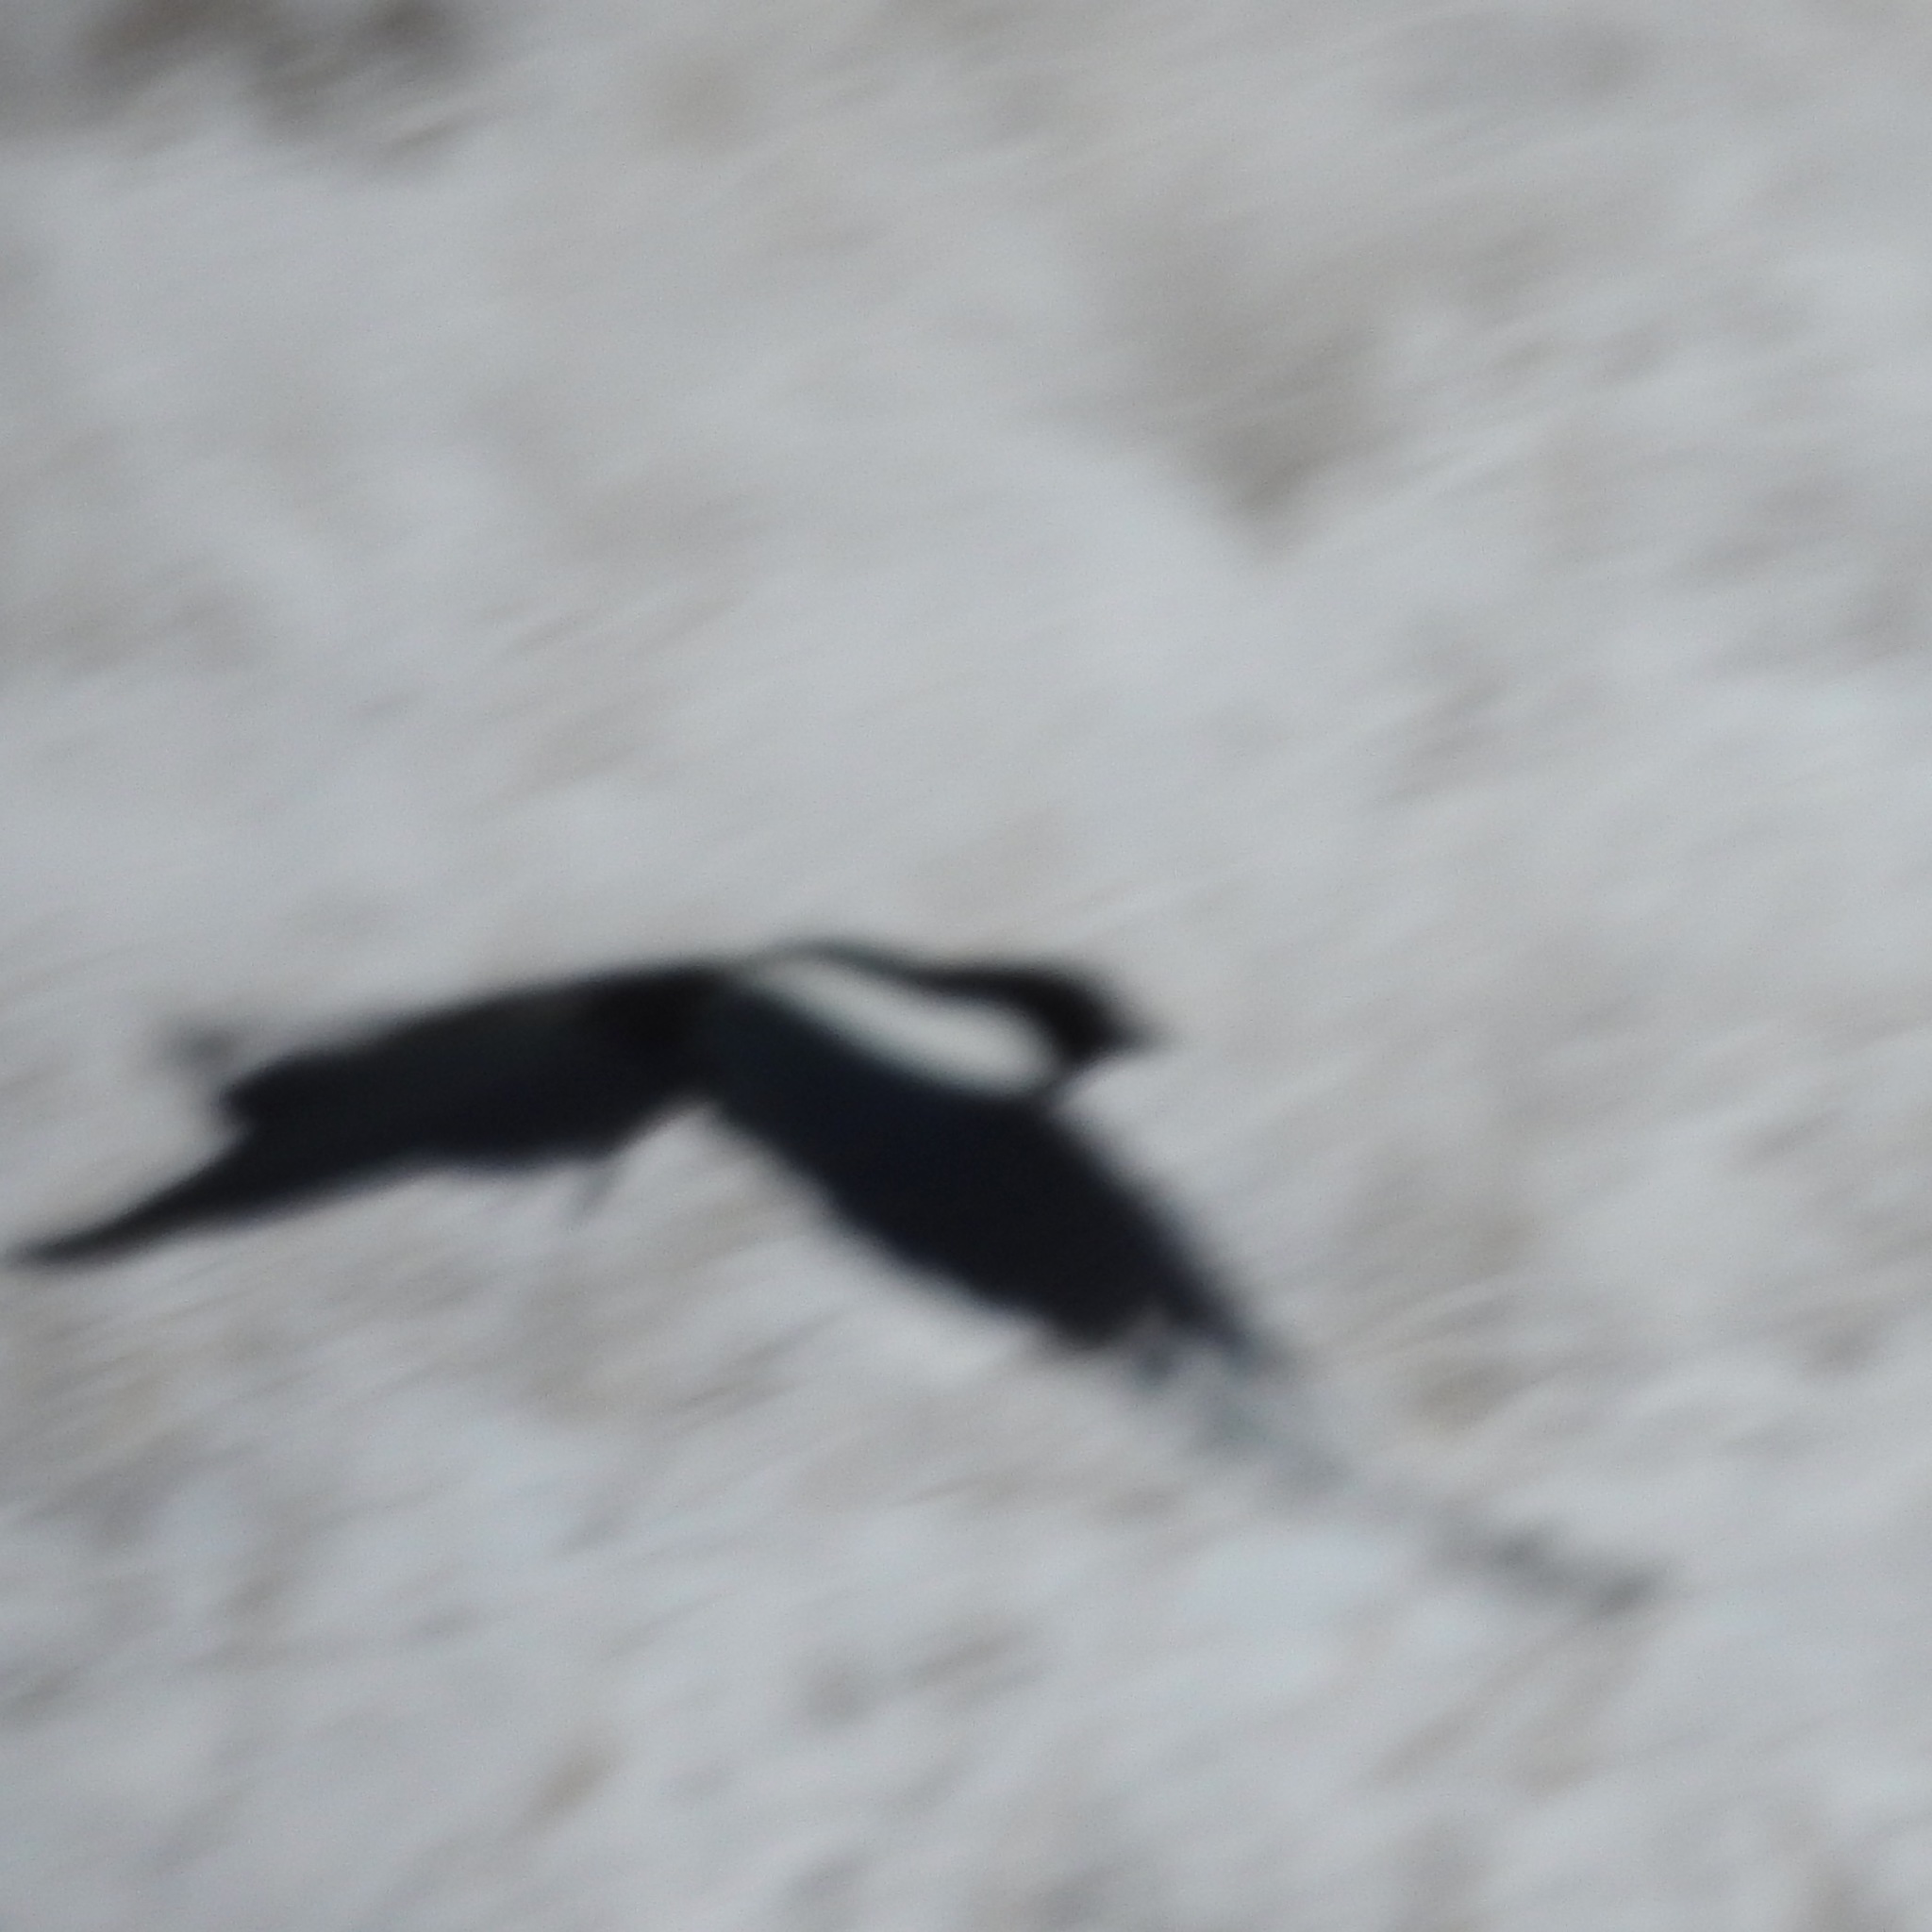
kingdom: Animalia
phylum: Chordata
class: Aves
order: Passeriformes
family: Corvidae
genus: Pica
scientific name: Pica hudsonia
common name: Black-billed magpie
